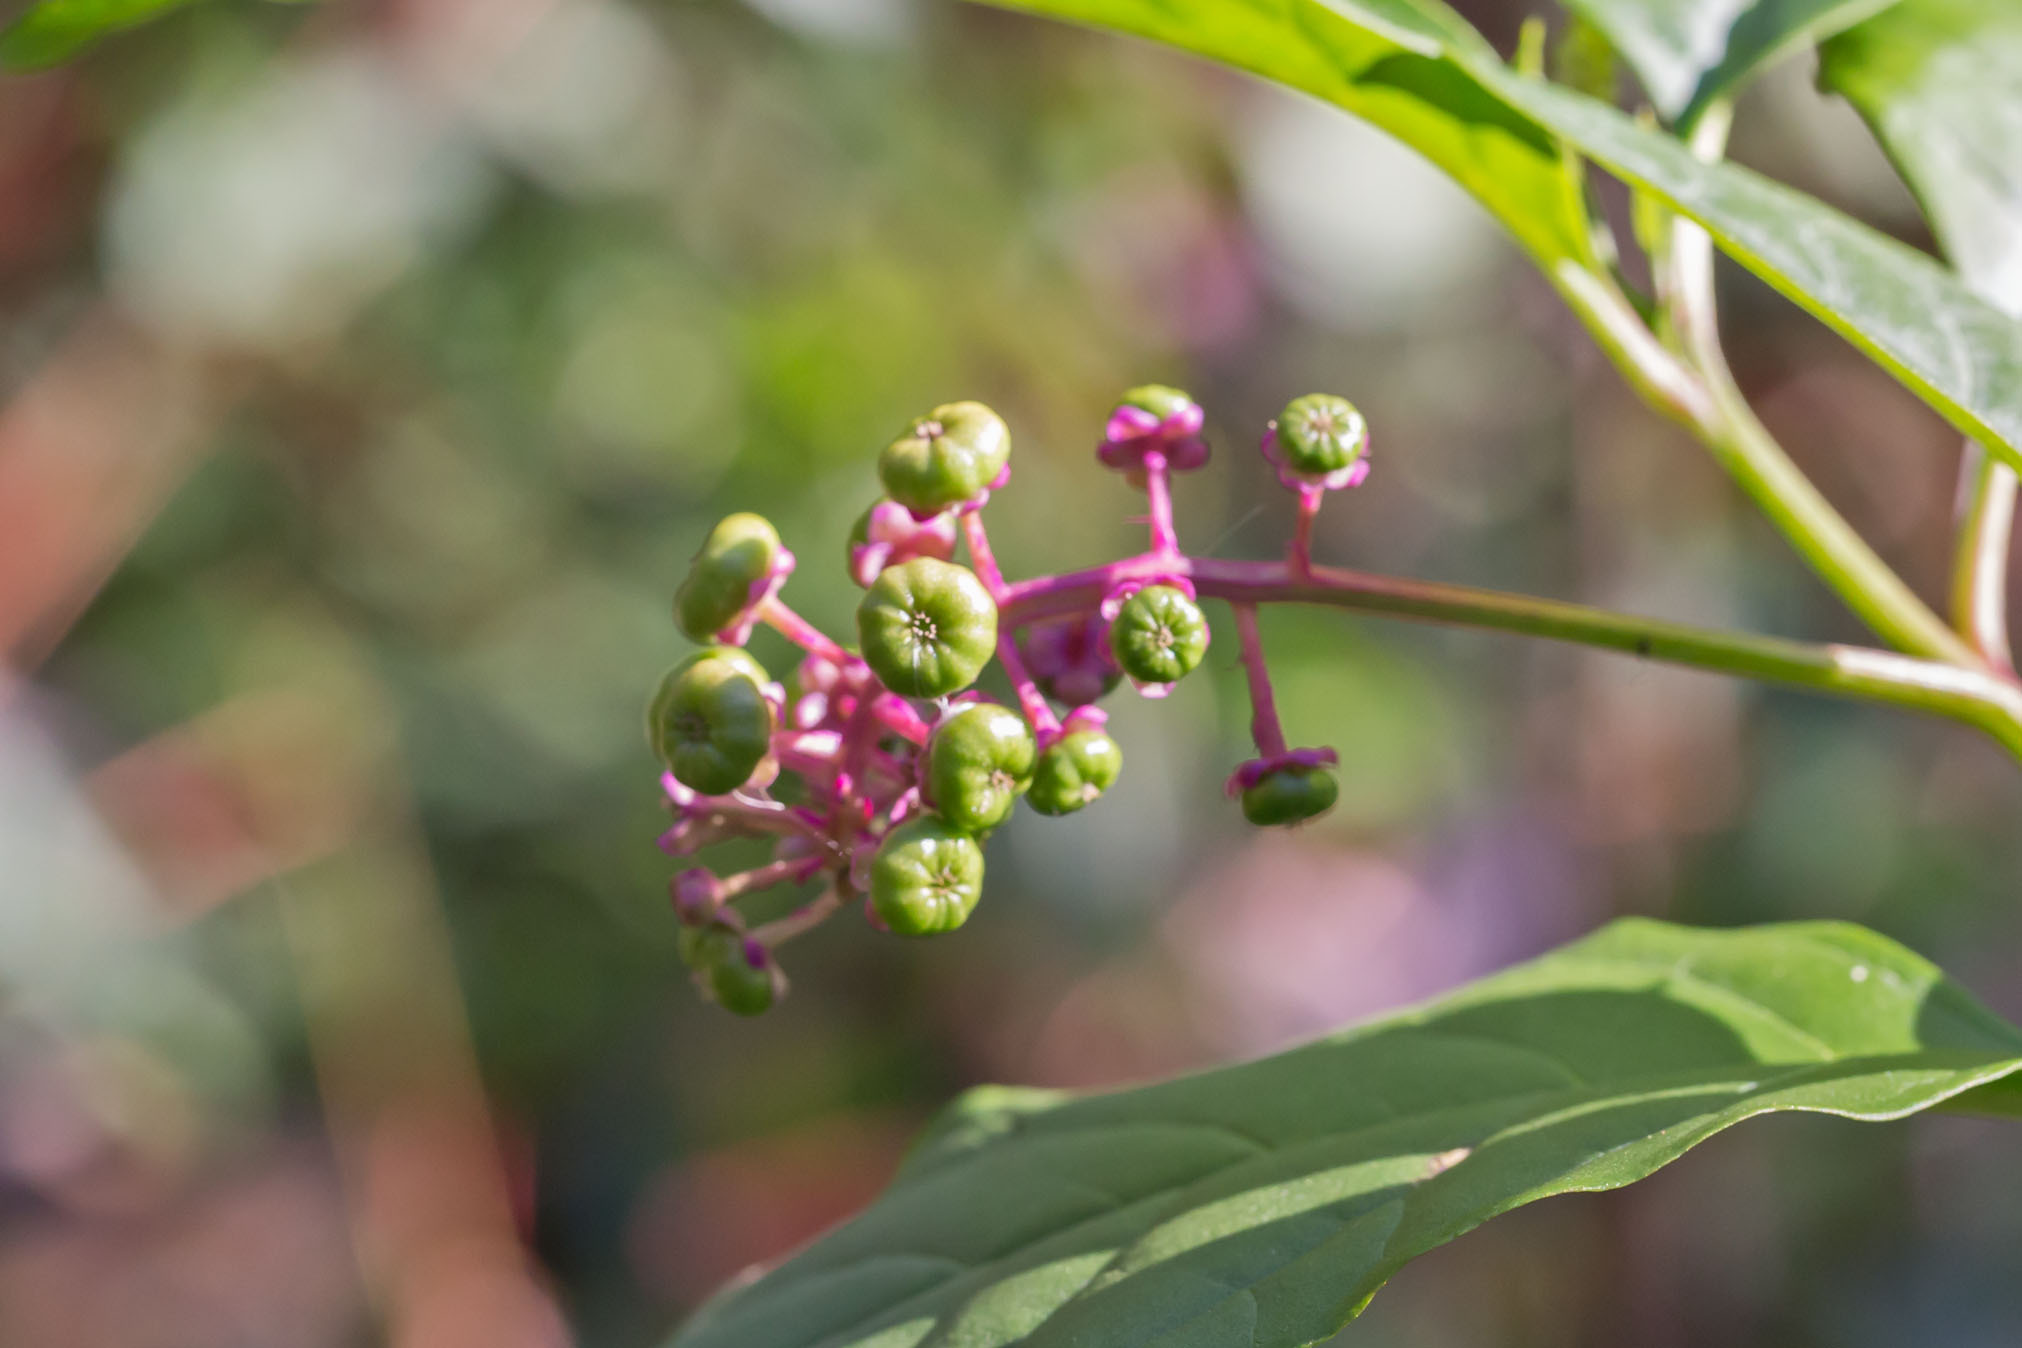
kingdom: Plantae
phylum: Tracheophyta
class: Magnoliopsida
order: Caryophyllales
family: Phytolaccaceae
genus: Phytolacca
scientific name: Phytolacca americana
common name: American pokeweed
